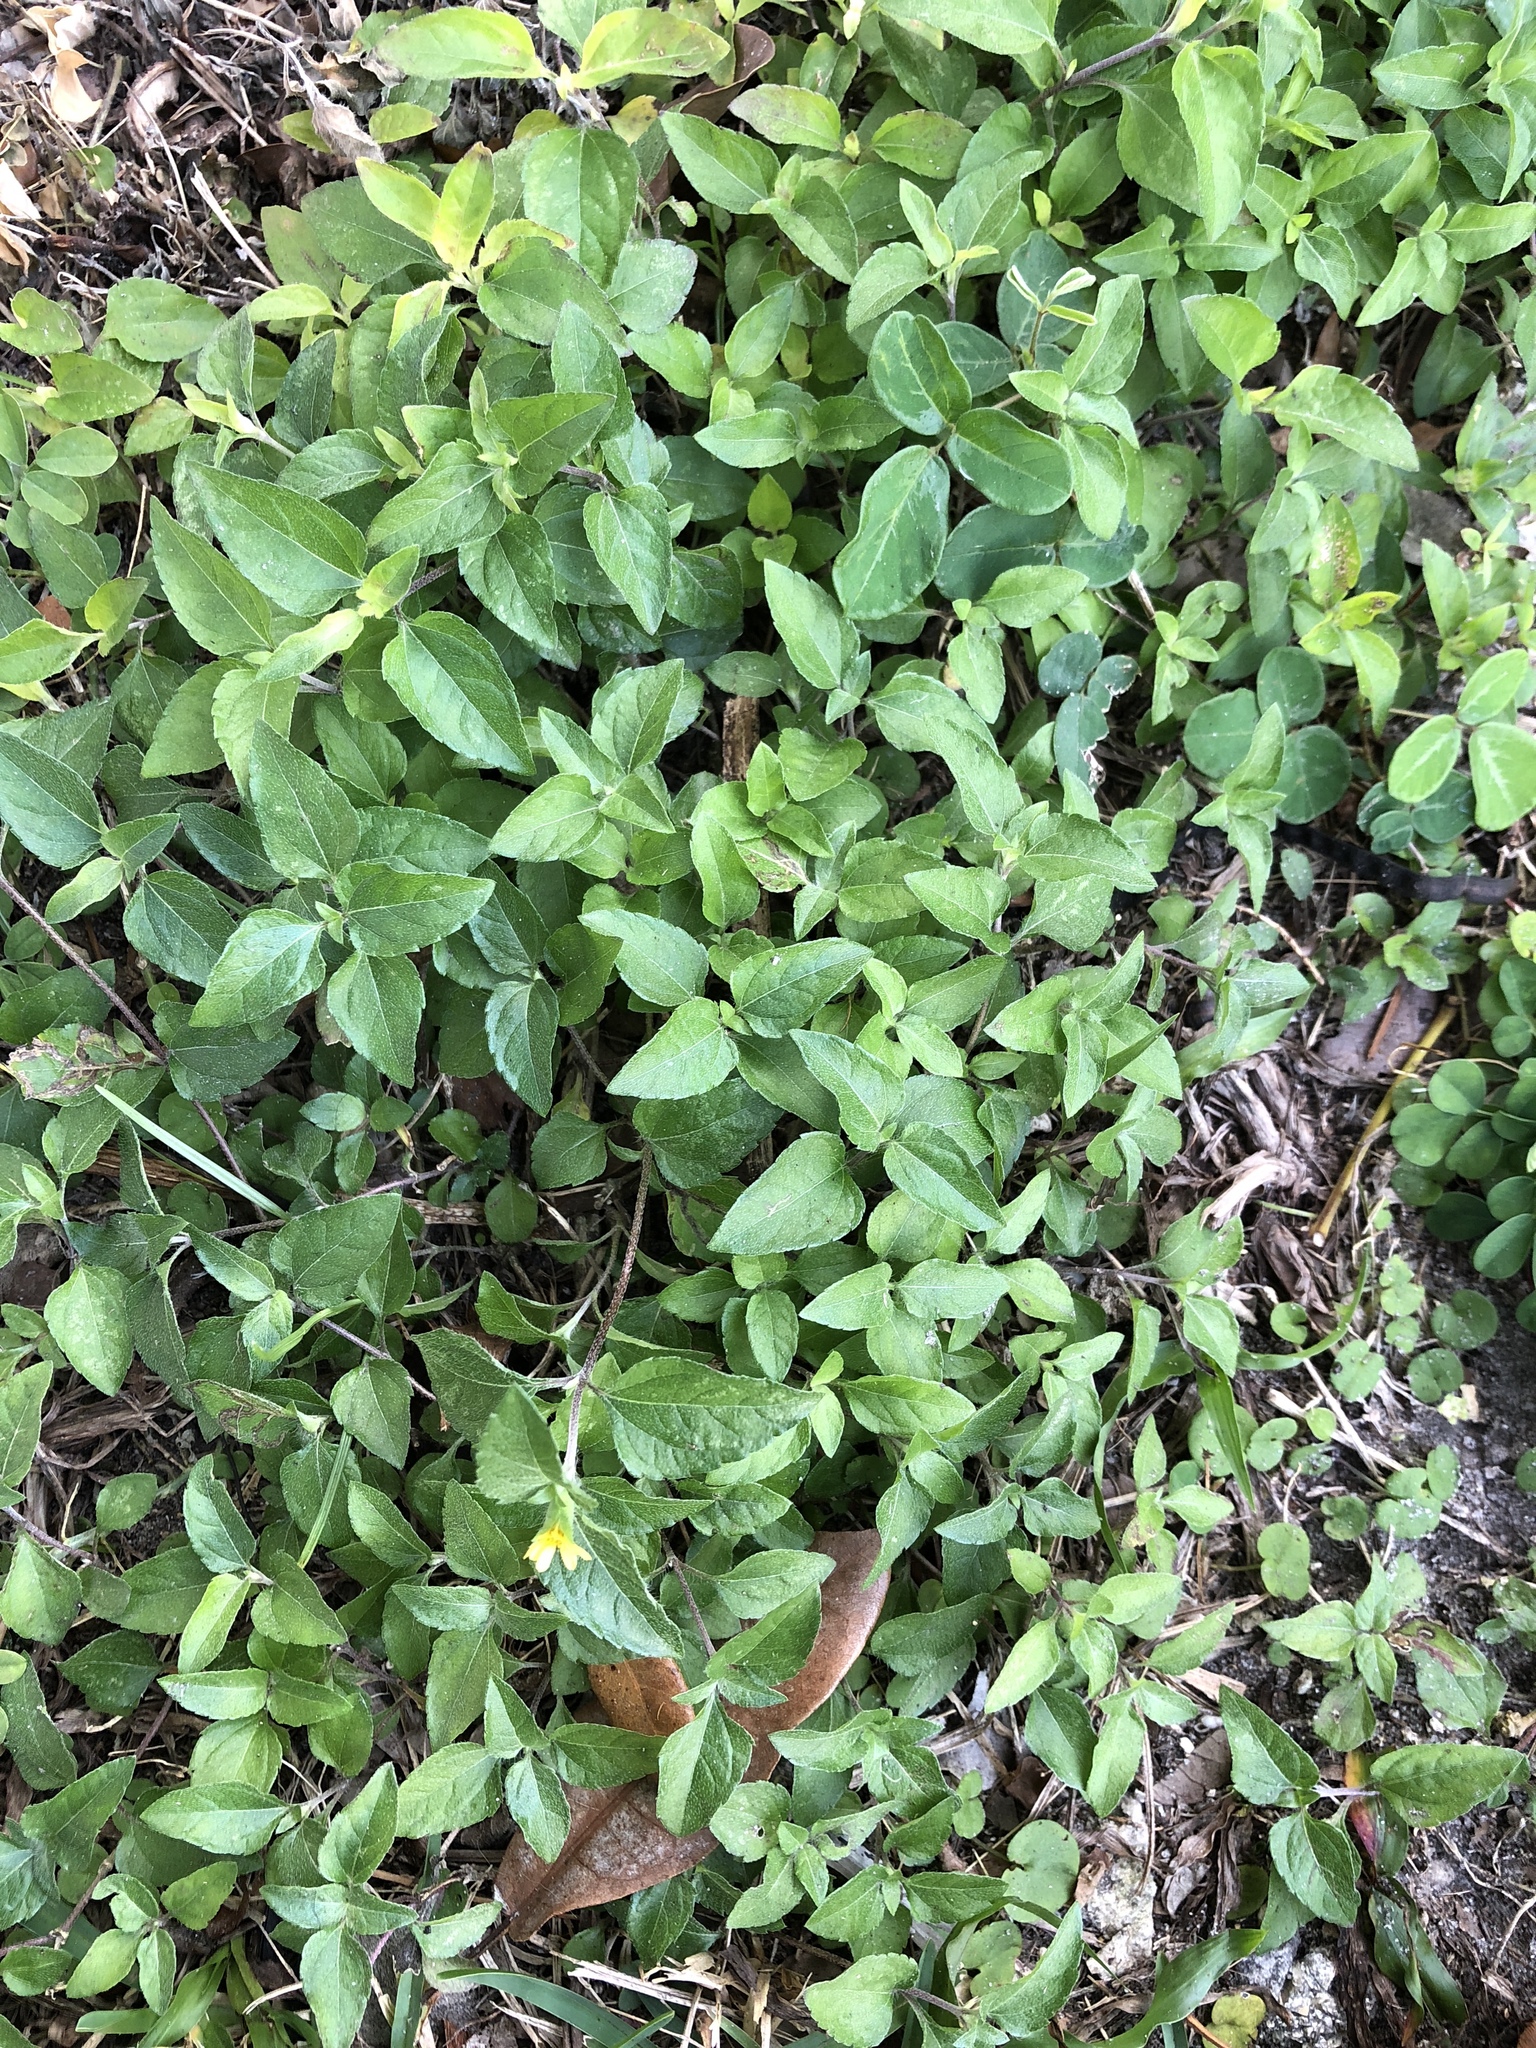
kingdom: Plantae
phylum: Tracheophyta
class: Magnoliopsida
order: Asterales
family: Asteraceae
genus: Calyptocarpus
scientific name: Calyptocarpus vialis
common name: Straggler daisy
